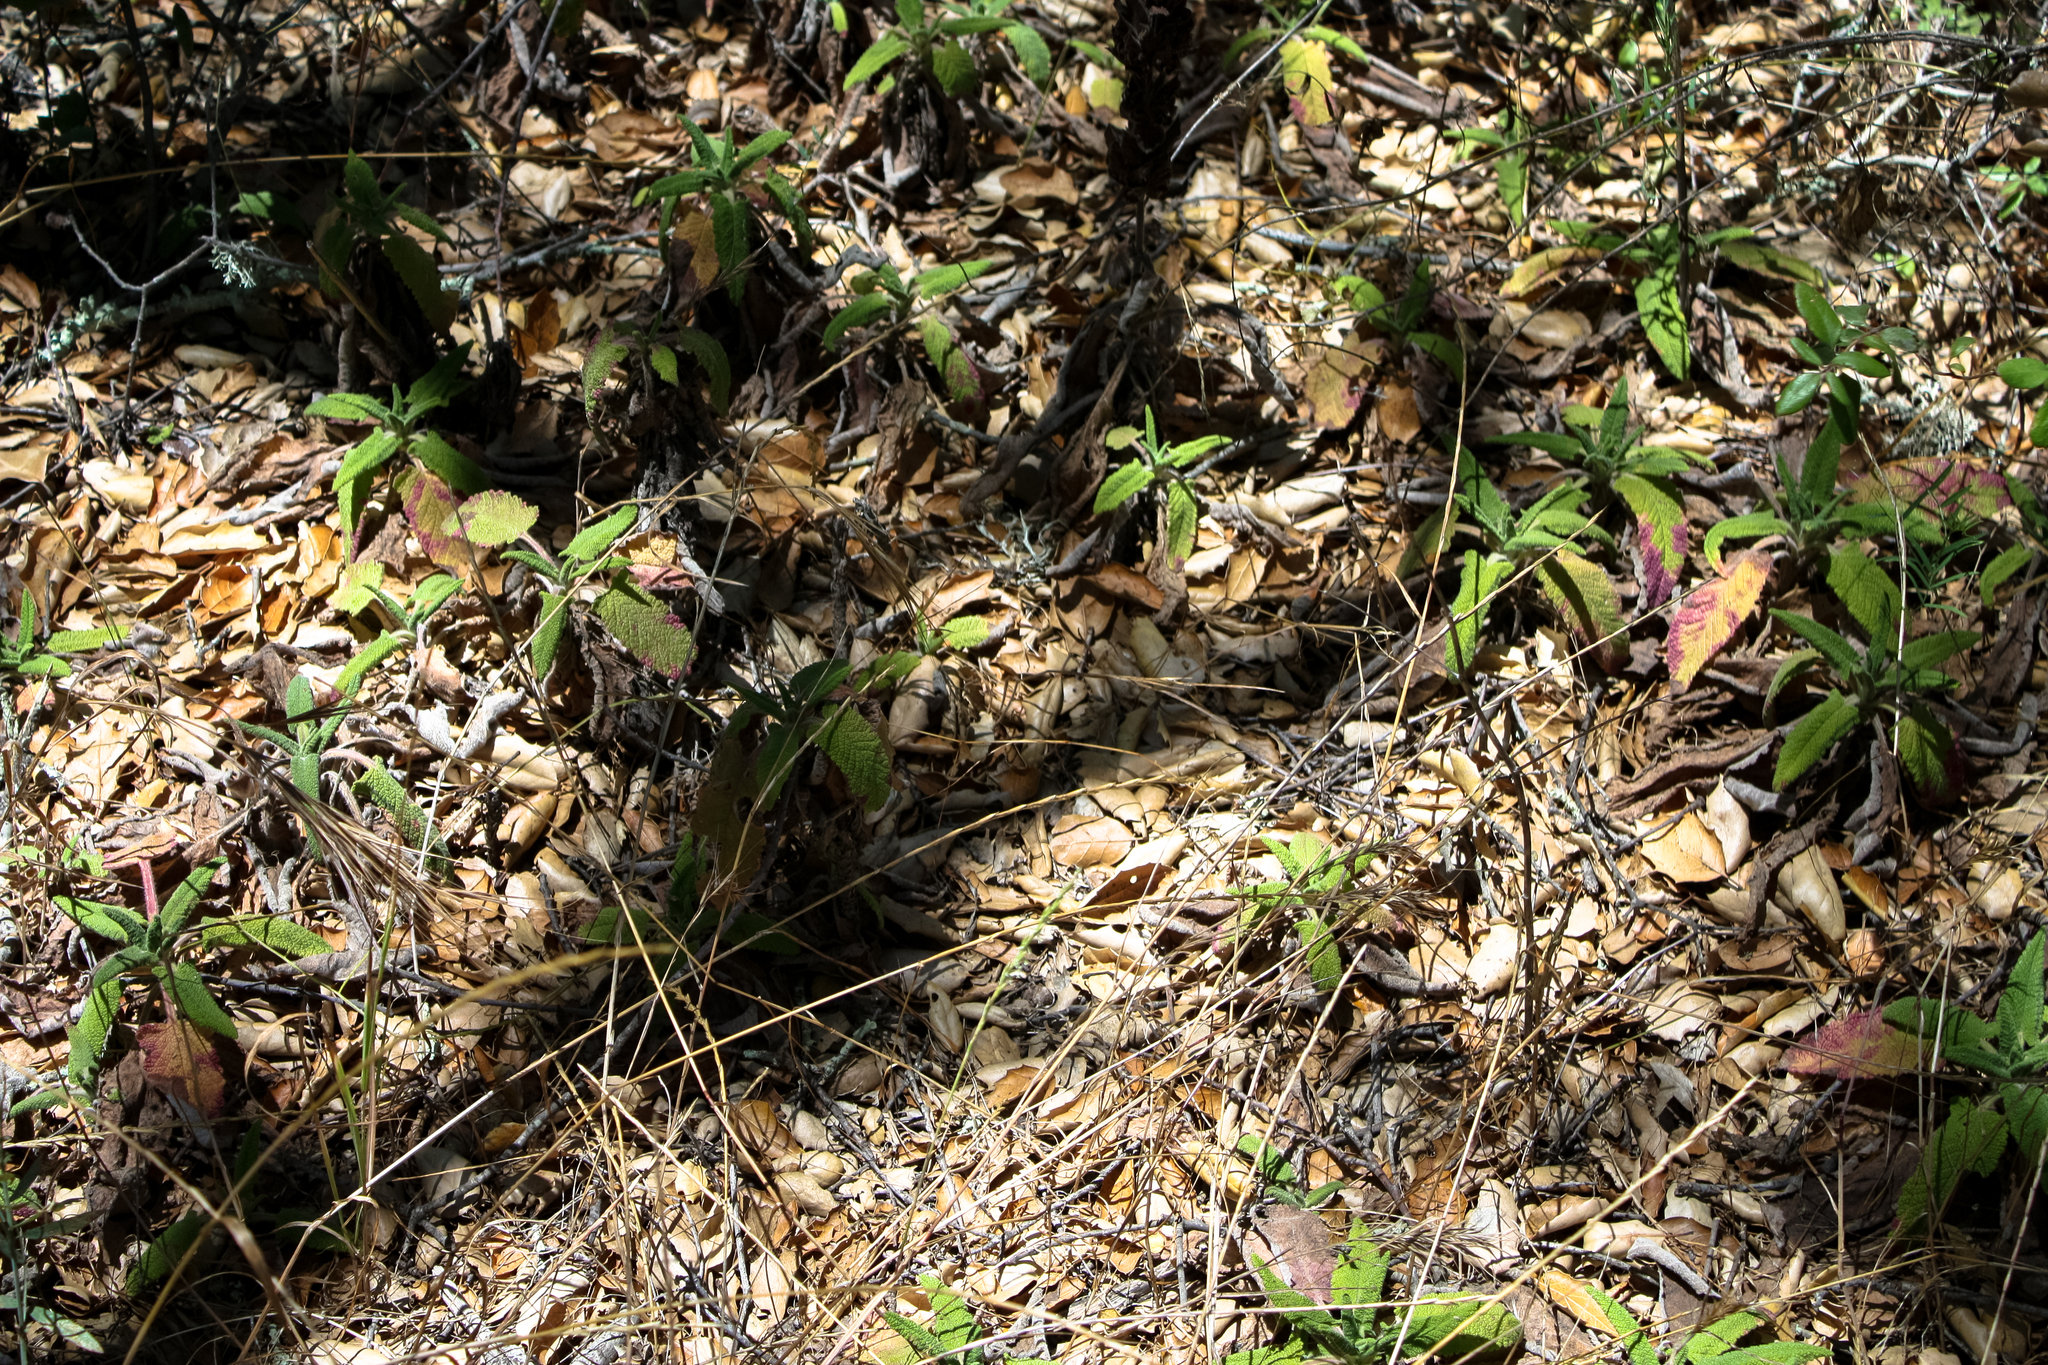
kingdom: Plantae
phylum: Tracheophyta
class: Magnoliopsida
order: Lamiales
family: Lamiaceae
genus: Salvia
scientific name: Salvia spathacea
